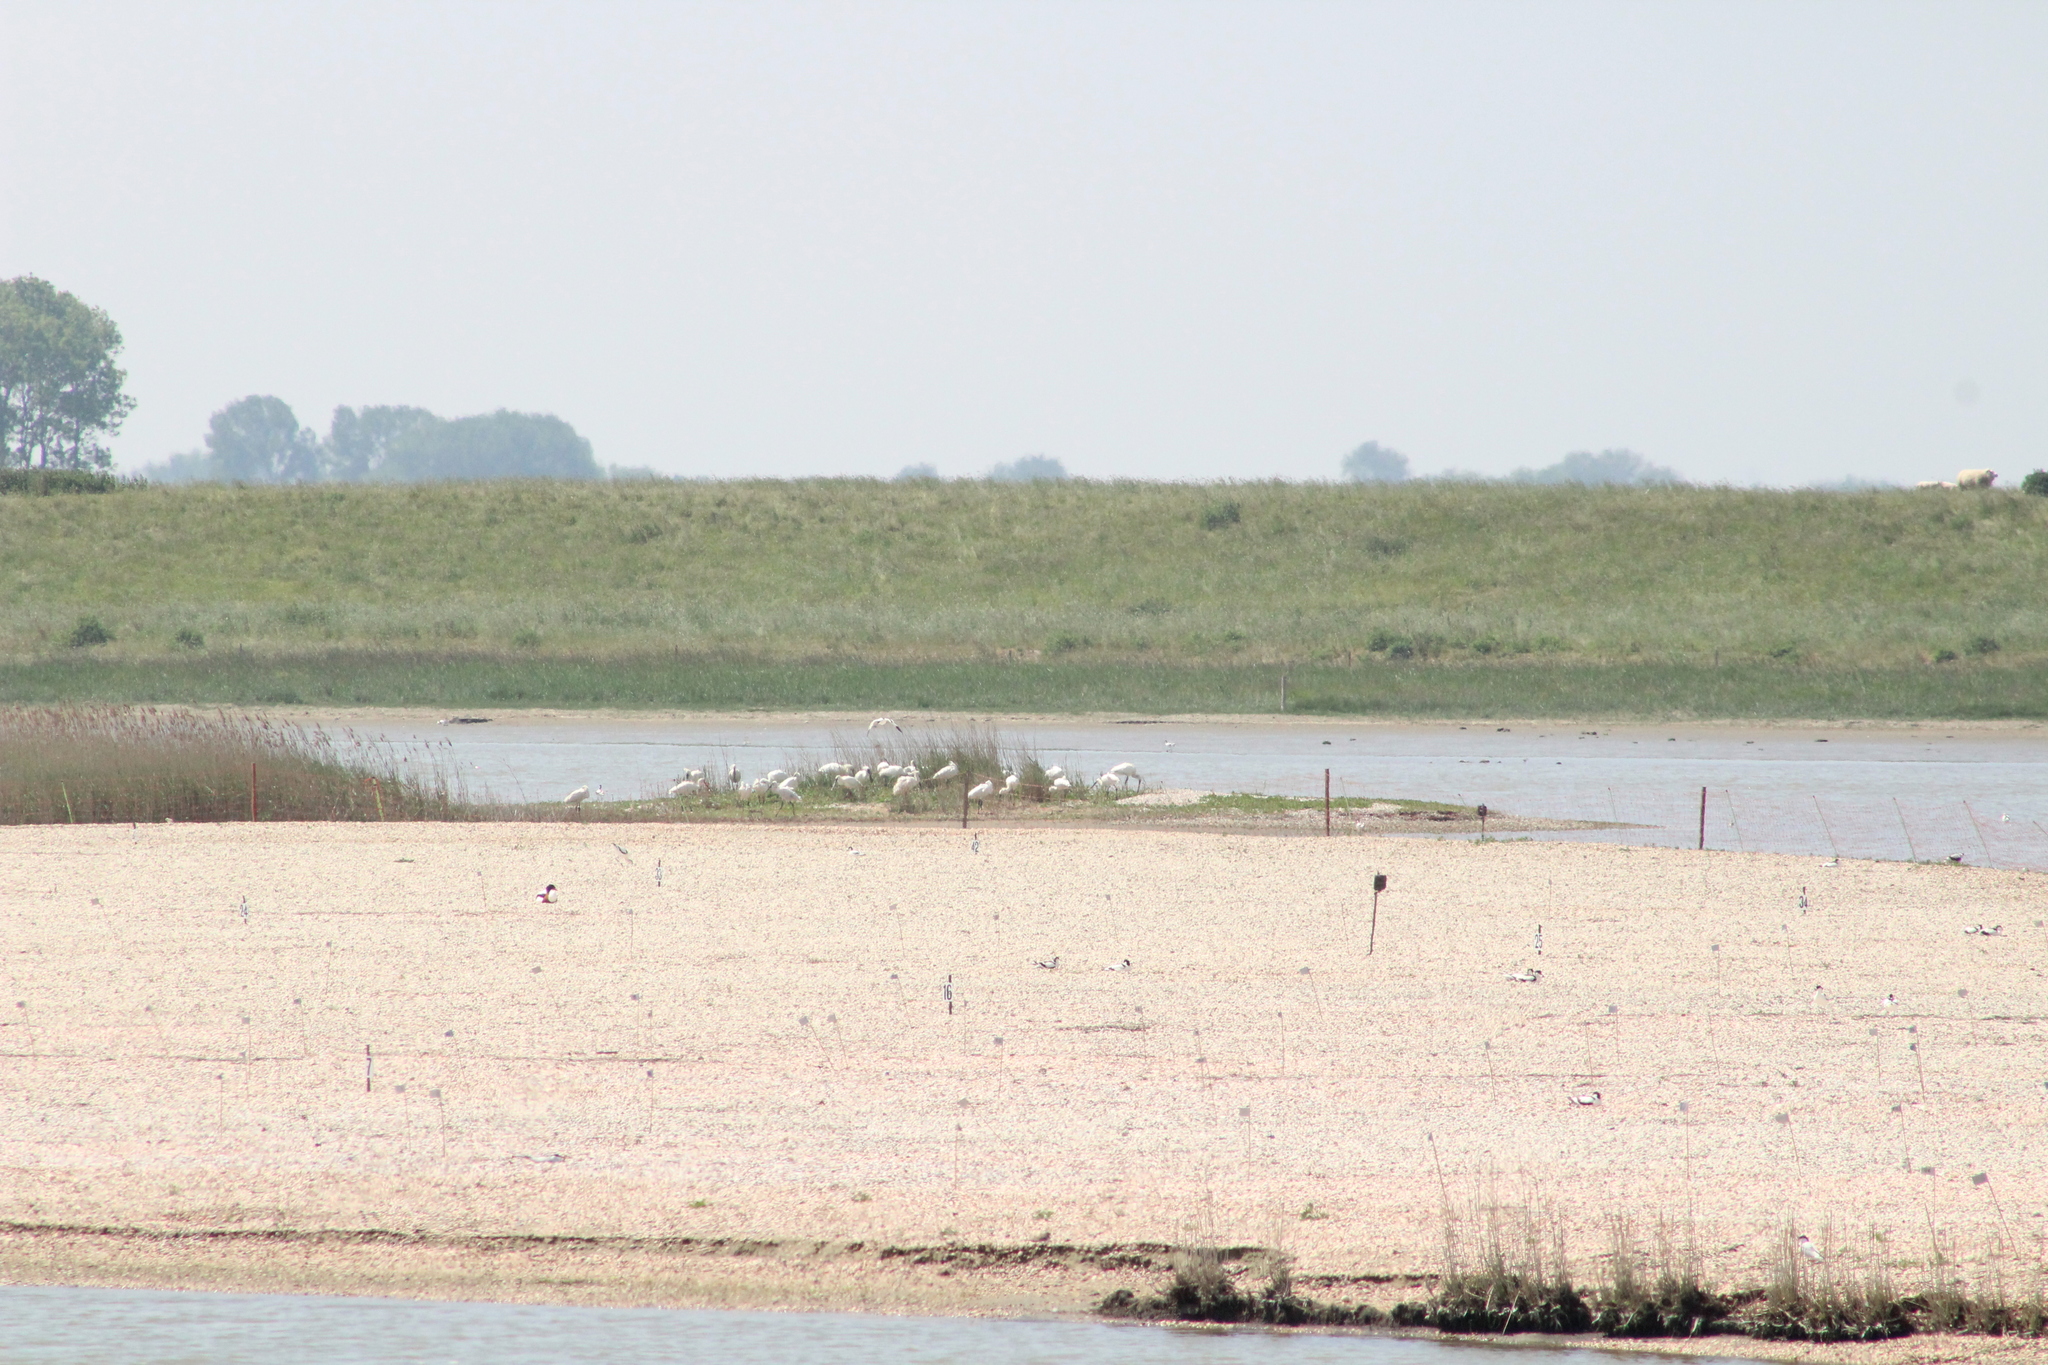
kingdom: Animalia
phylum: Chordata
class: Aves
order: Pelecaniformes
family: Threskiornithidae
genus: Platalea
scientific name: Platalea leucorodia
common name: Eurasian spoonbill
